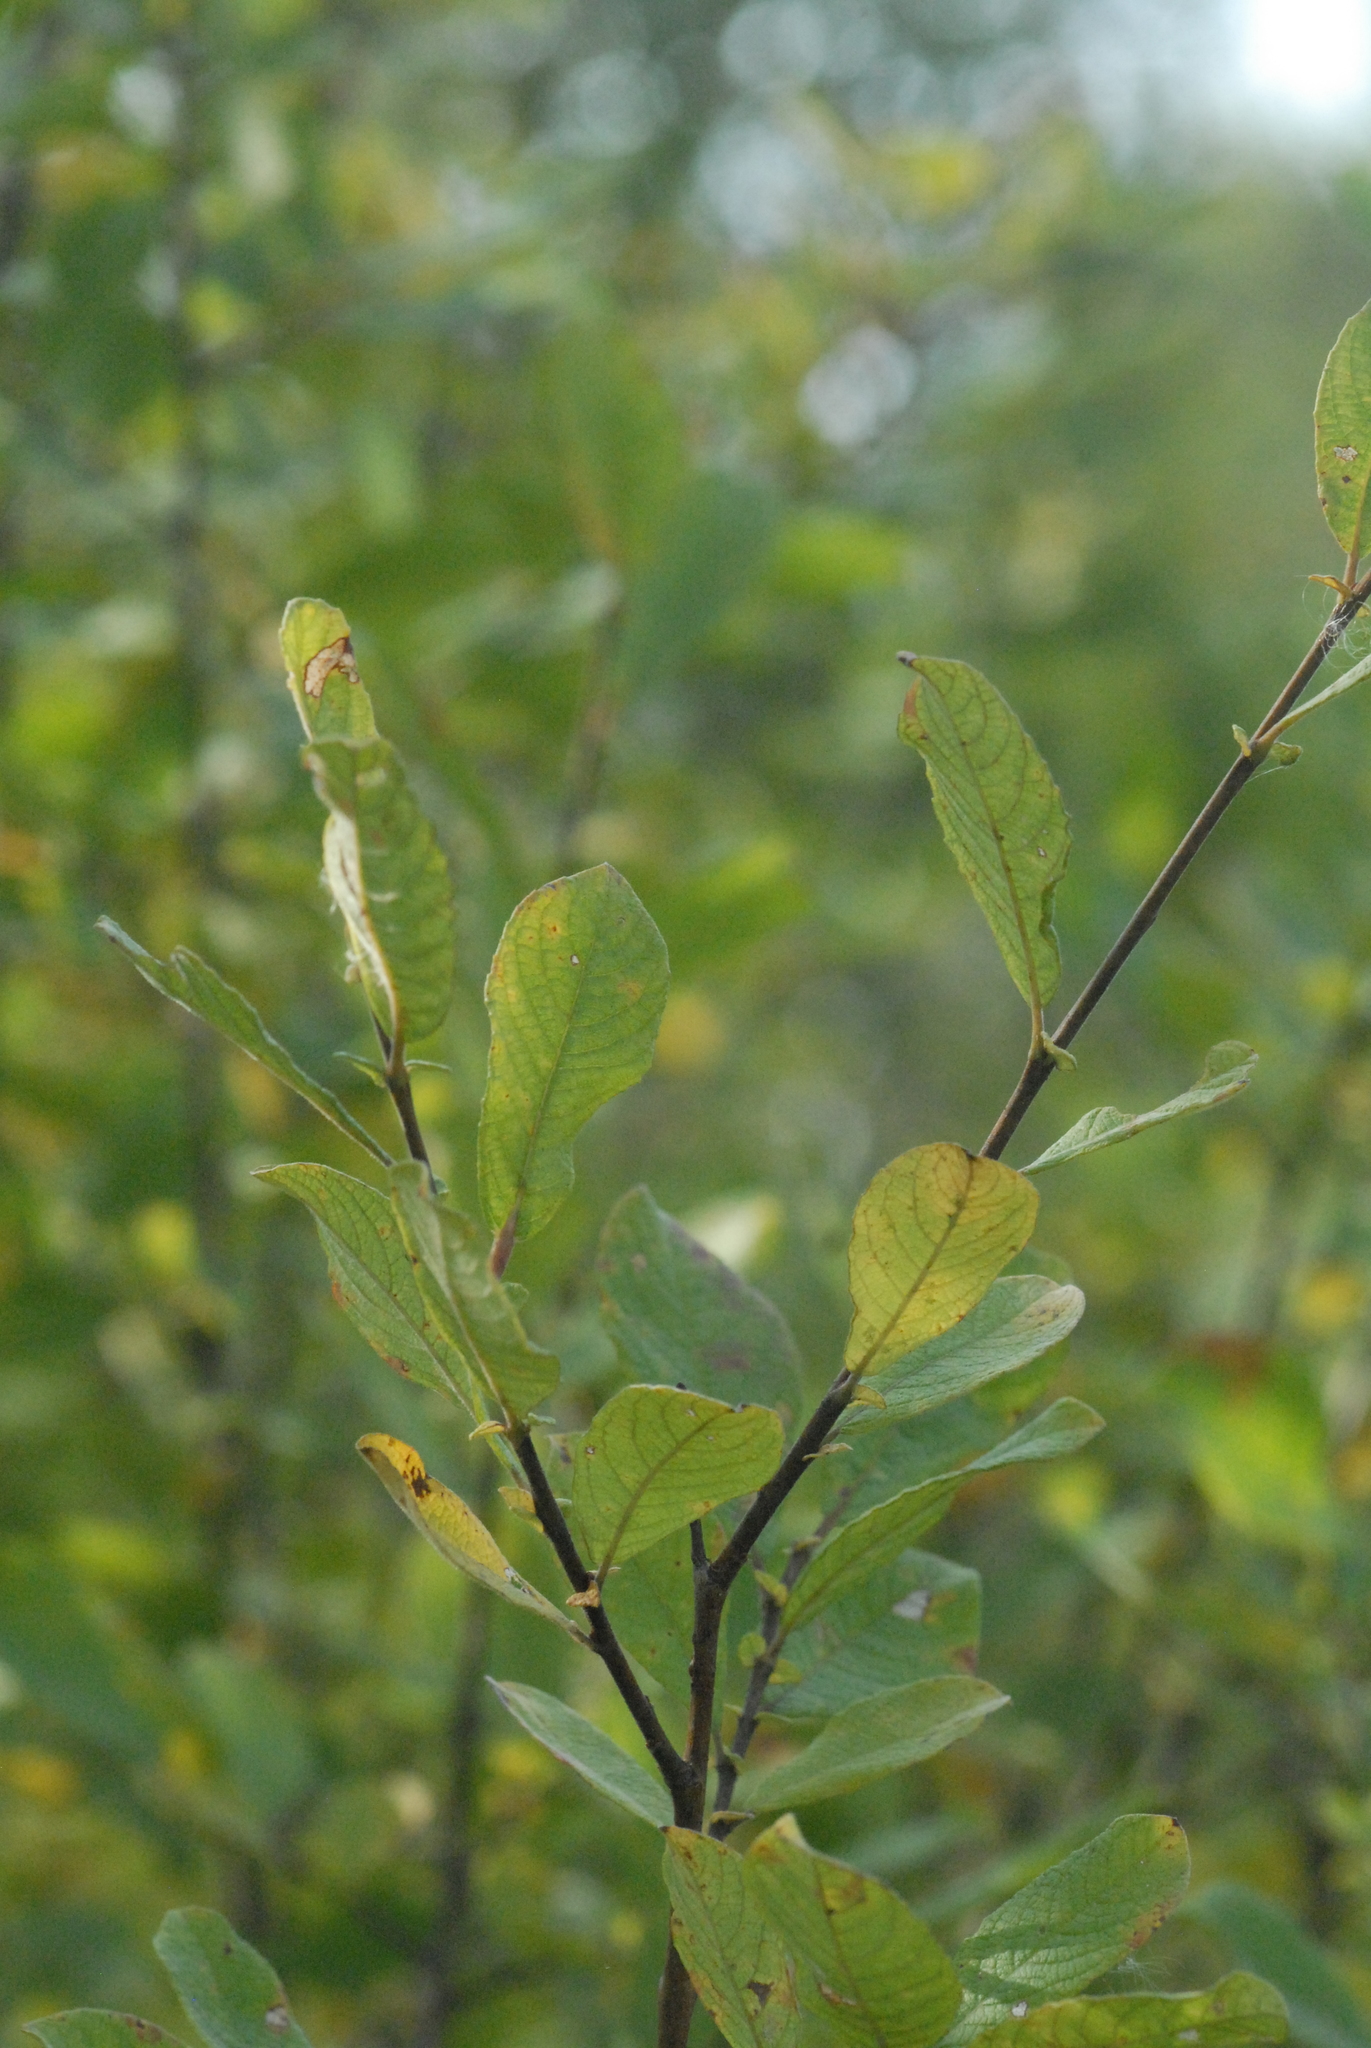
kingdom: Plantae
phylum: Tracheophyta
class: Magnoliopsida
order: Malpighiales
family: Salicaceae
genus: Salix
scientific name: Salix aurita
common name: Eared willow
